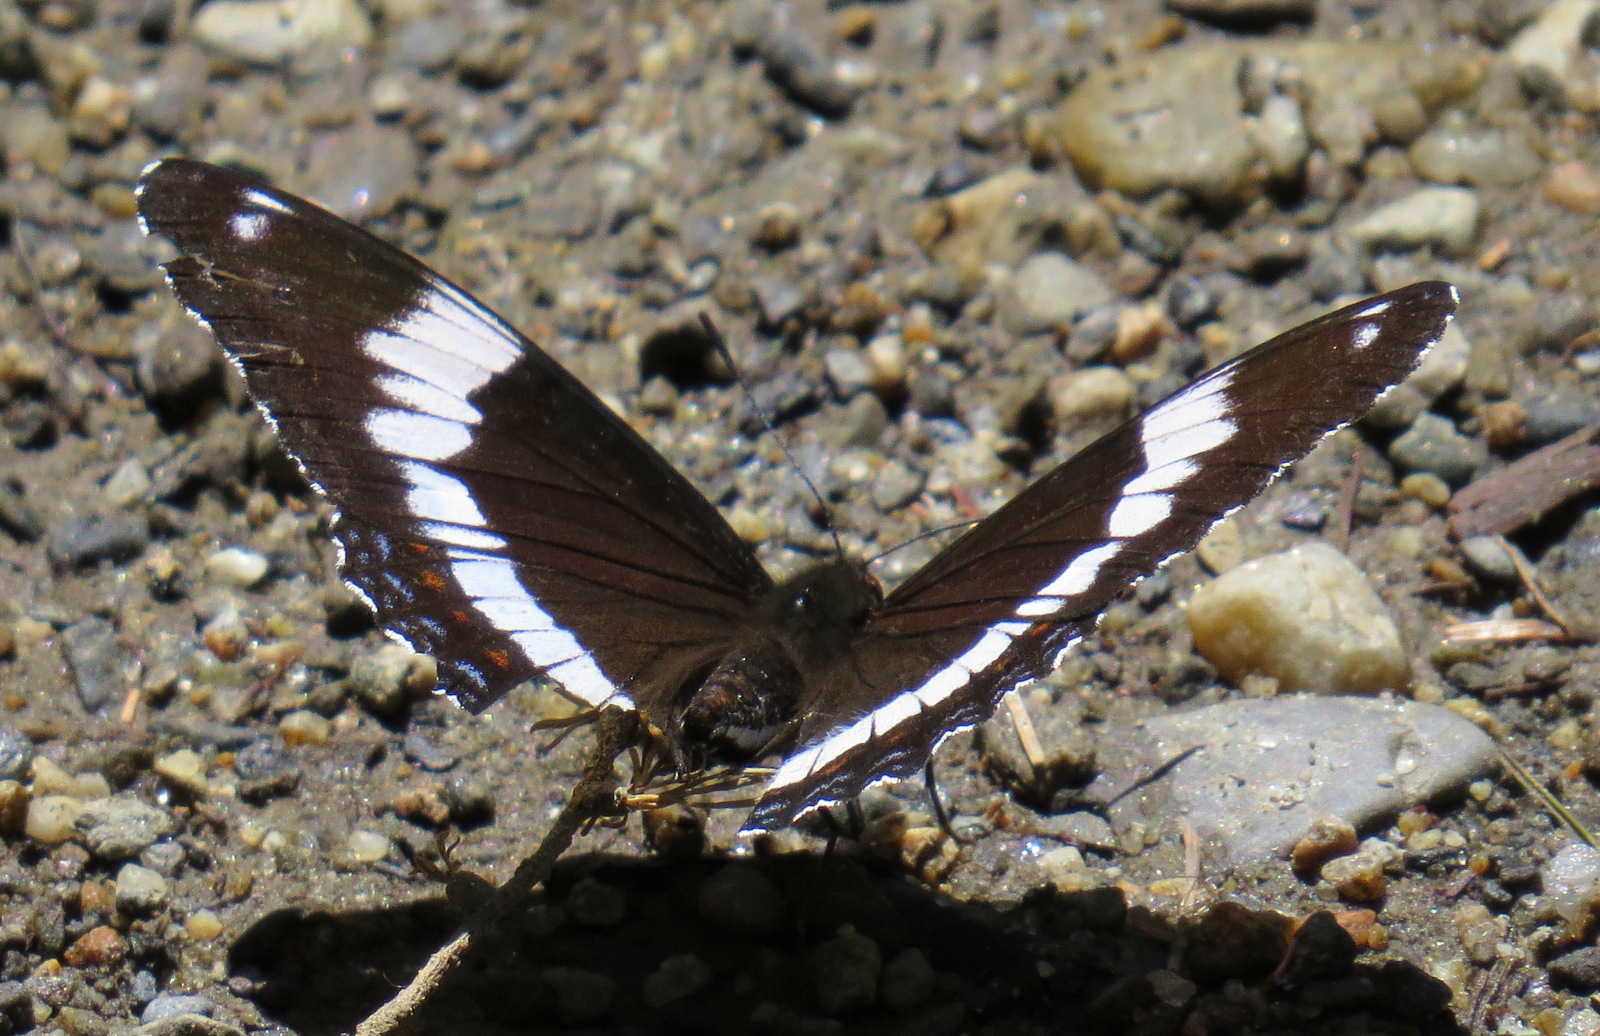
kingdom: Animalia
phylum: Arthropoda
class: Insecta
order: Lepidoptera
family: Nymphalidae
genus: Limenitis
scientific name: Limenitis arthemis
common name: Red-spotted admiral
